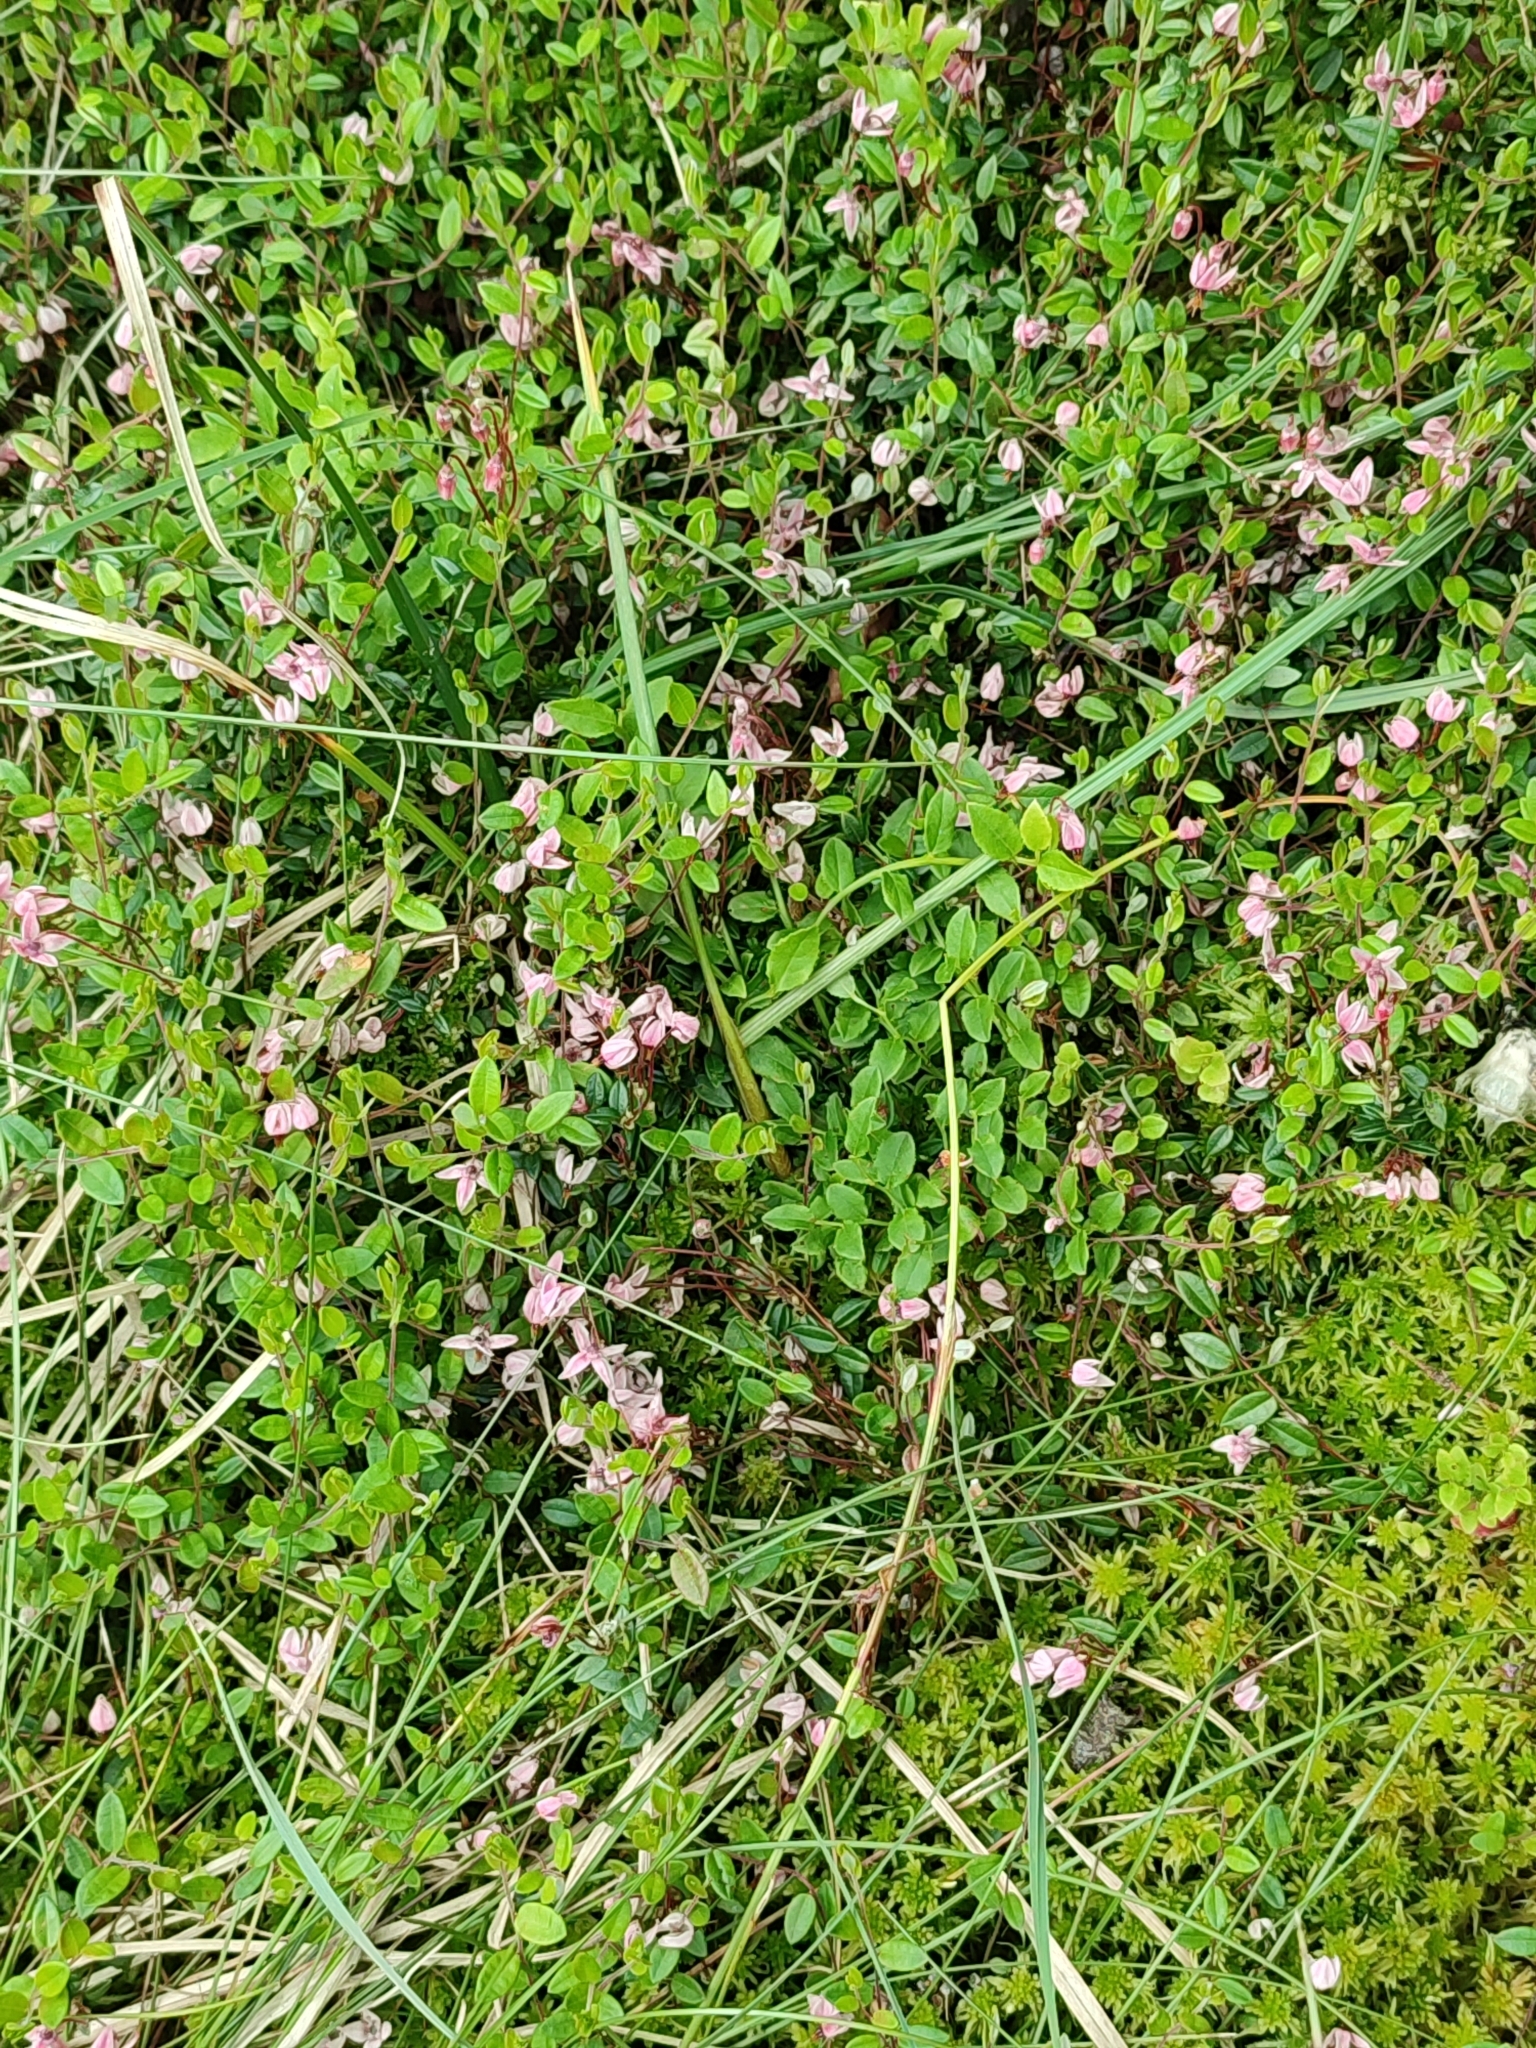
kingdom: Plantae
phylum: Tracheophyta
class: Magnoliopsida
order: Ericales
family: Ericaceae
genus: Vaccinium
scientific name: Vaccinium oxycoccos
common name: Cranberry
